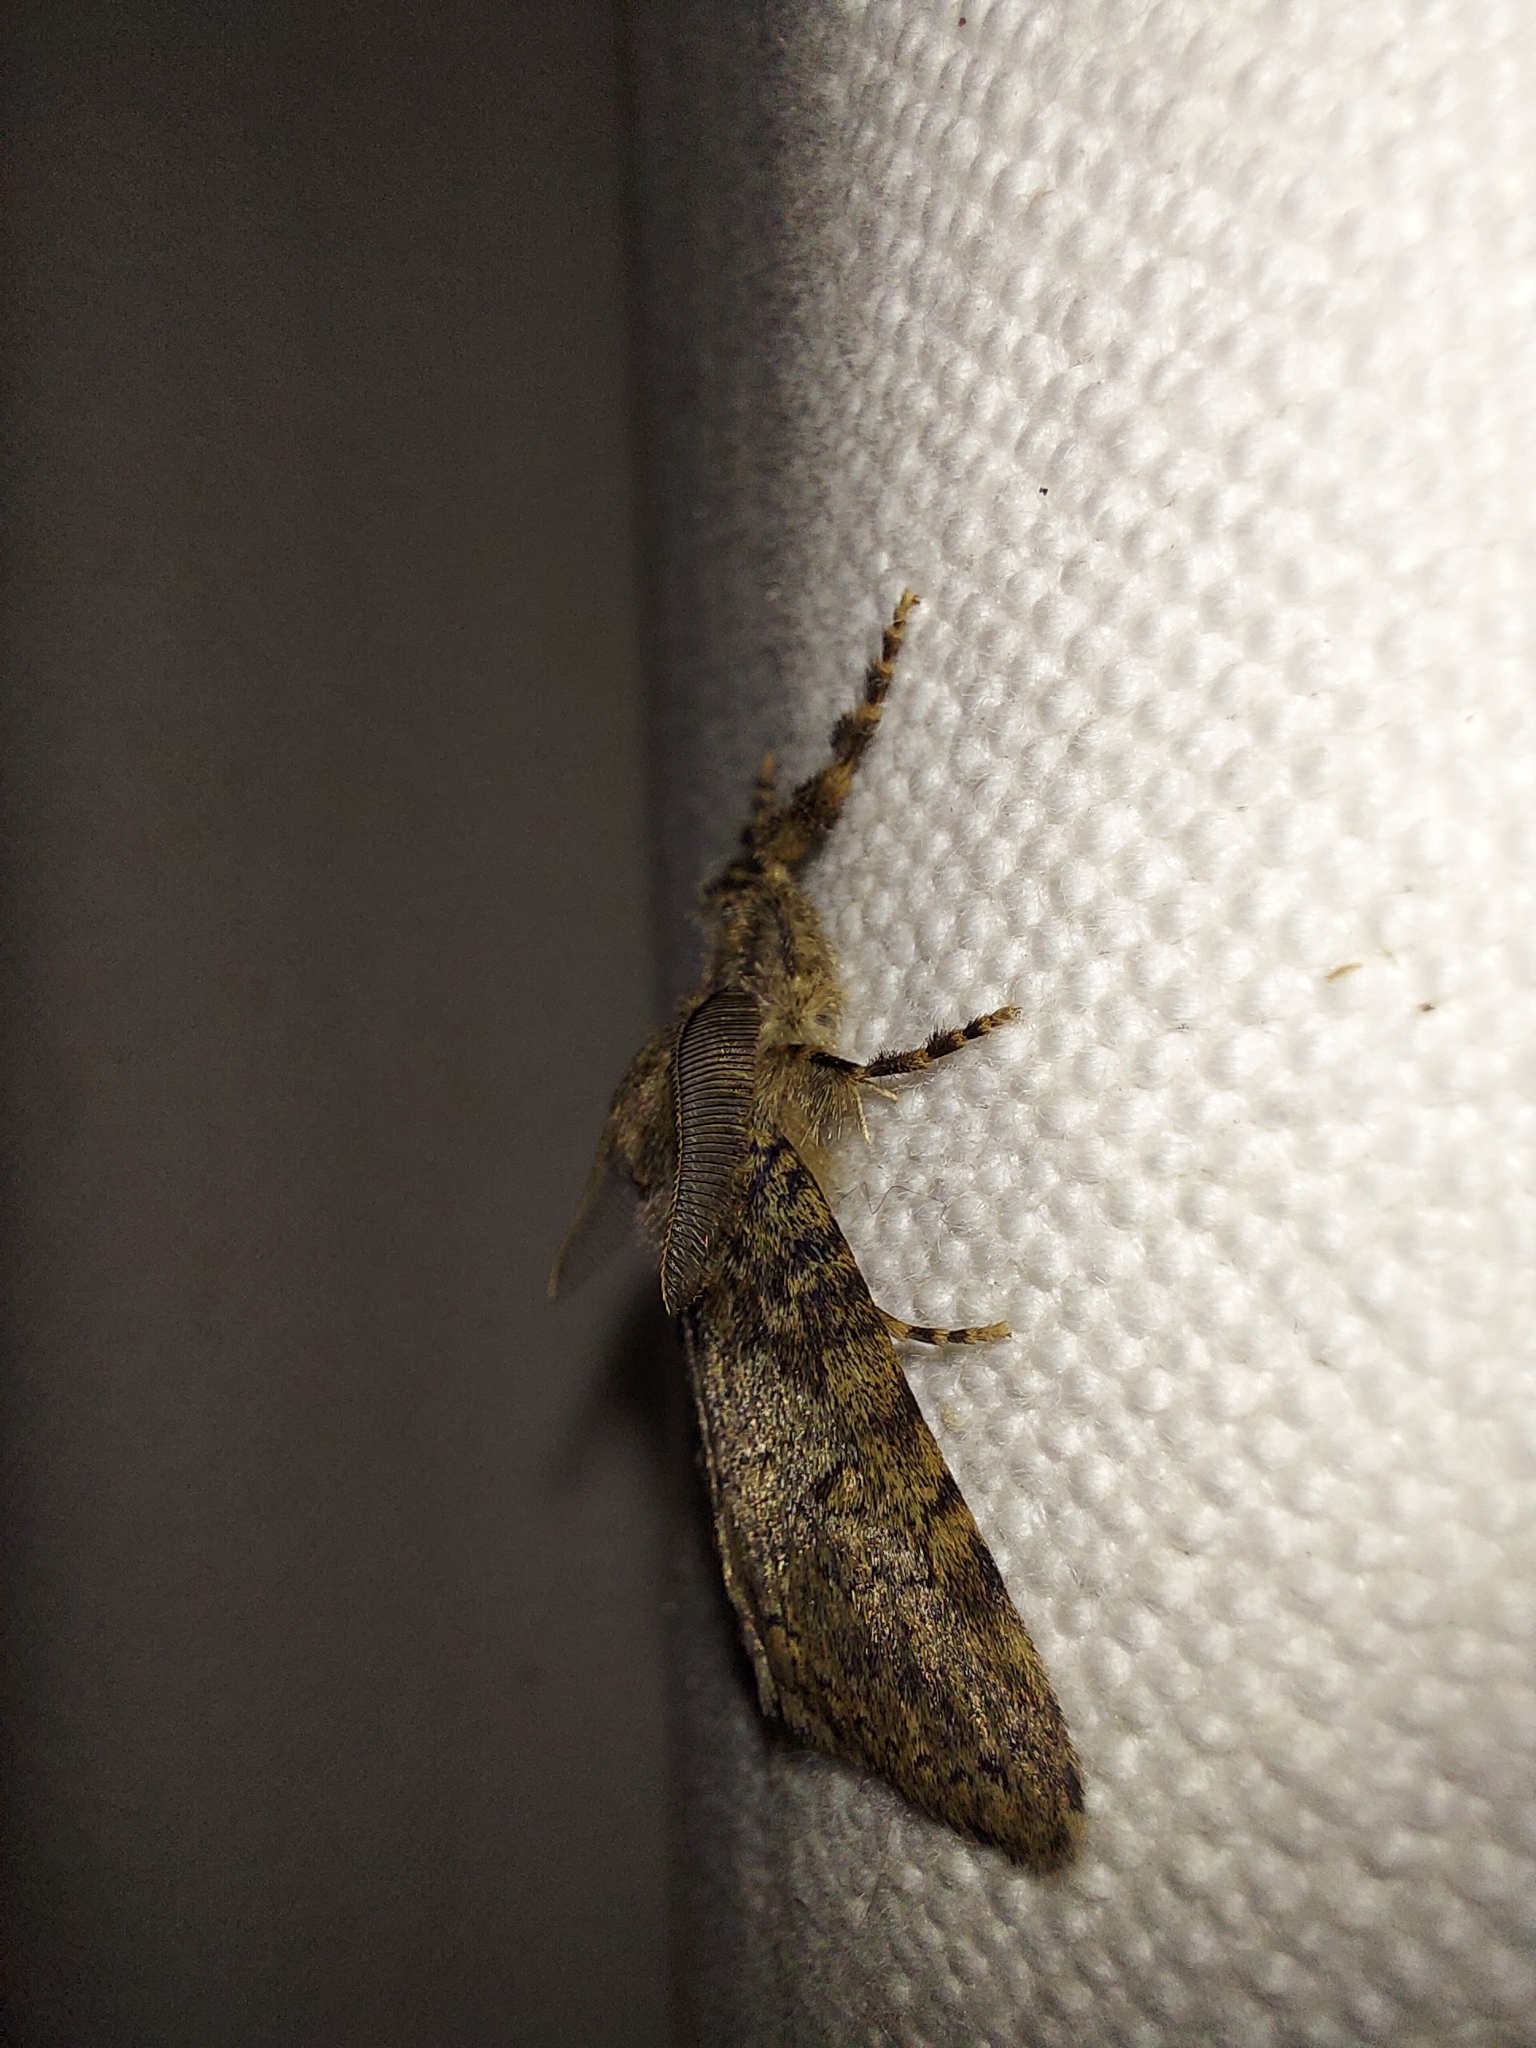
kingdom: Animalia
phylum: Arthropoda
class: Insecta
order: Lepidoptera
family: Erebidae
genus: Laelia
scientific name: Laelia fusca
